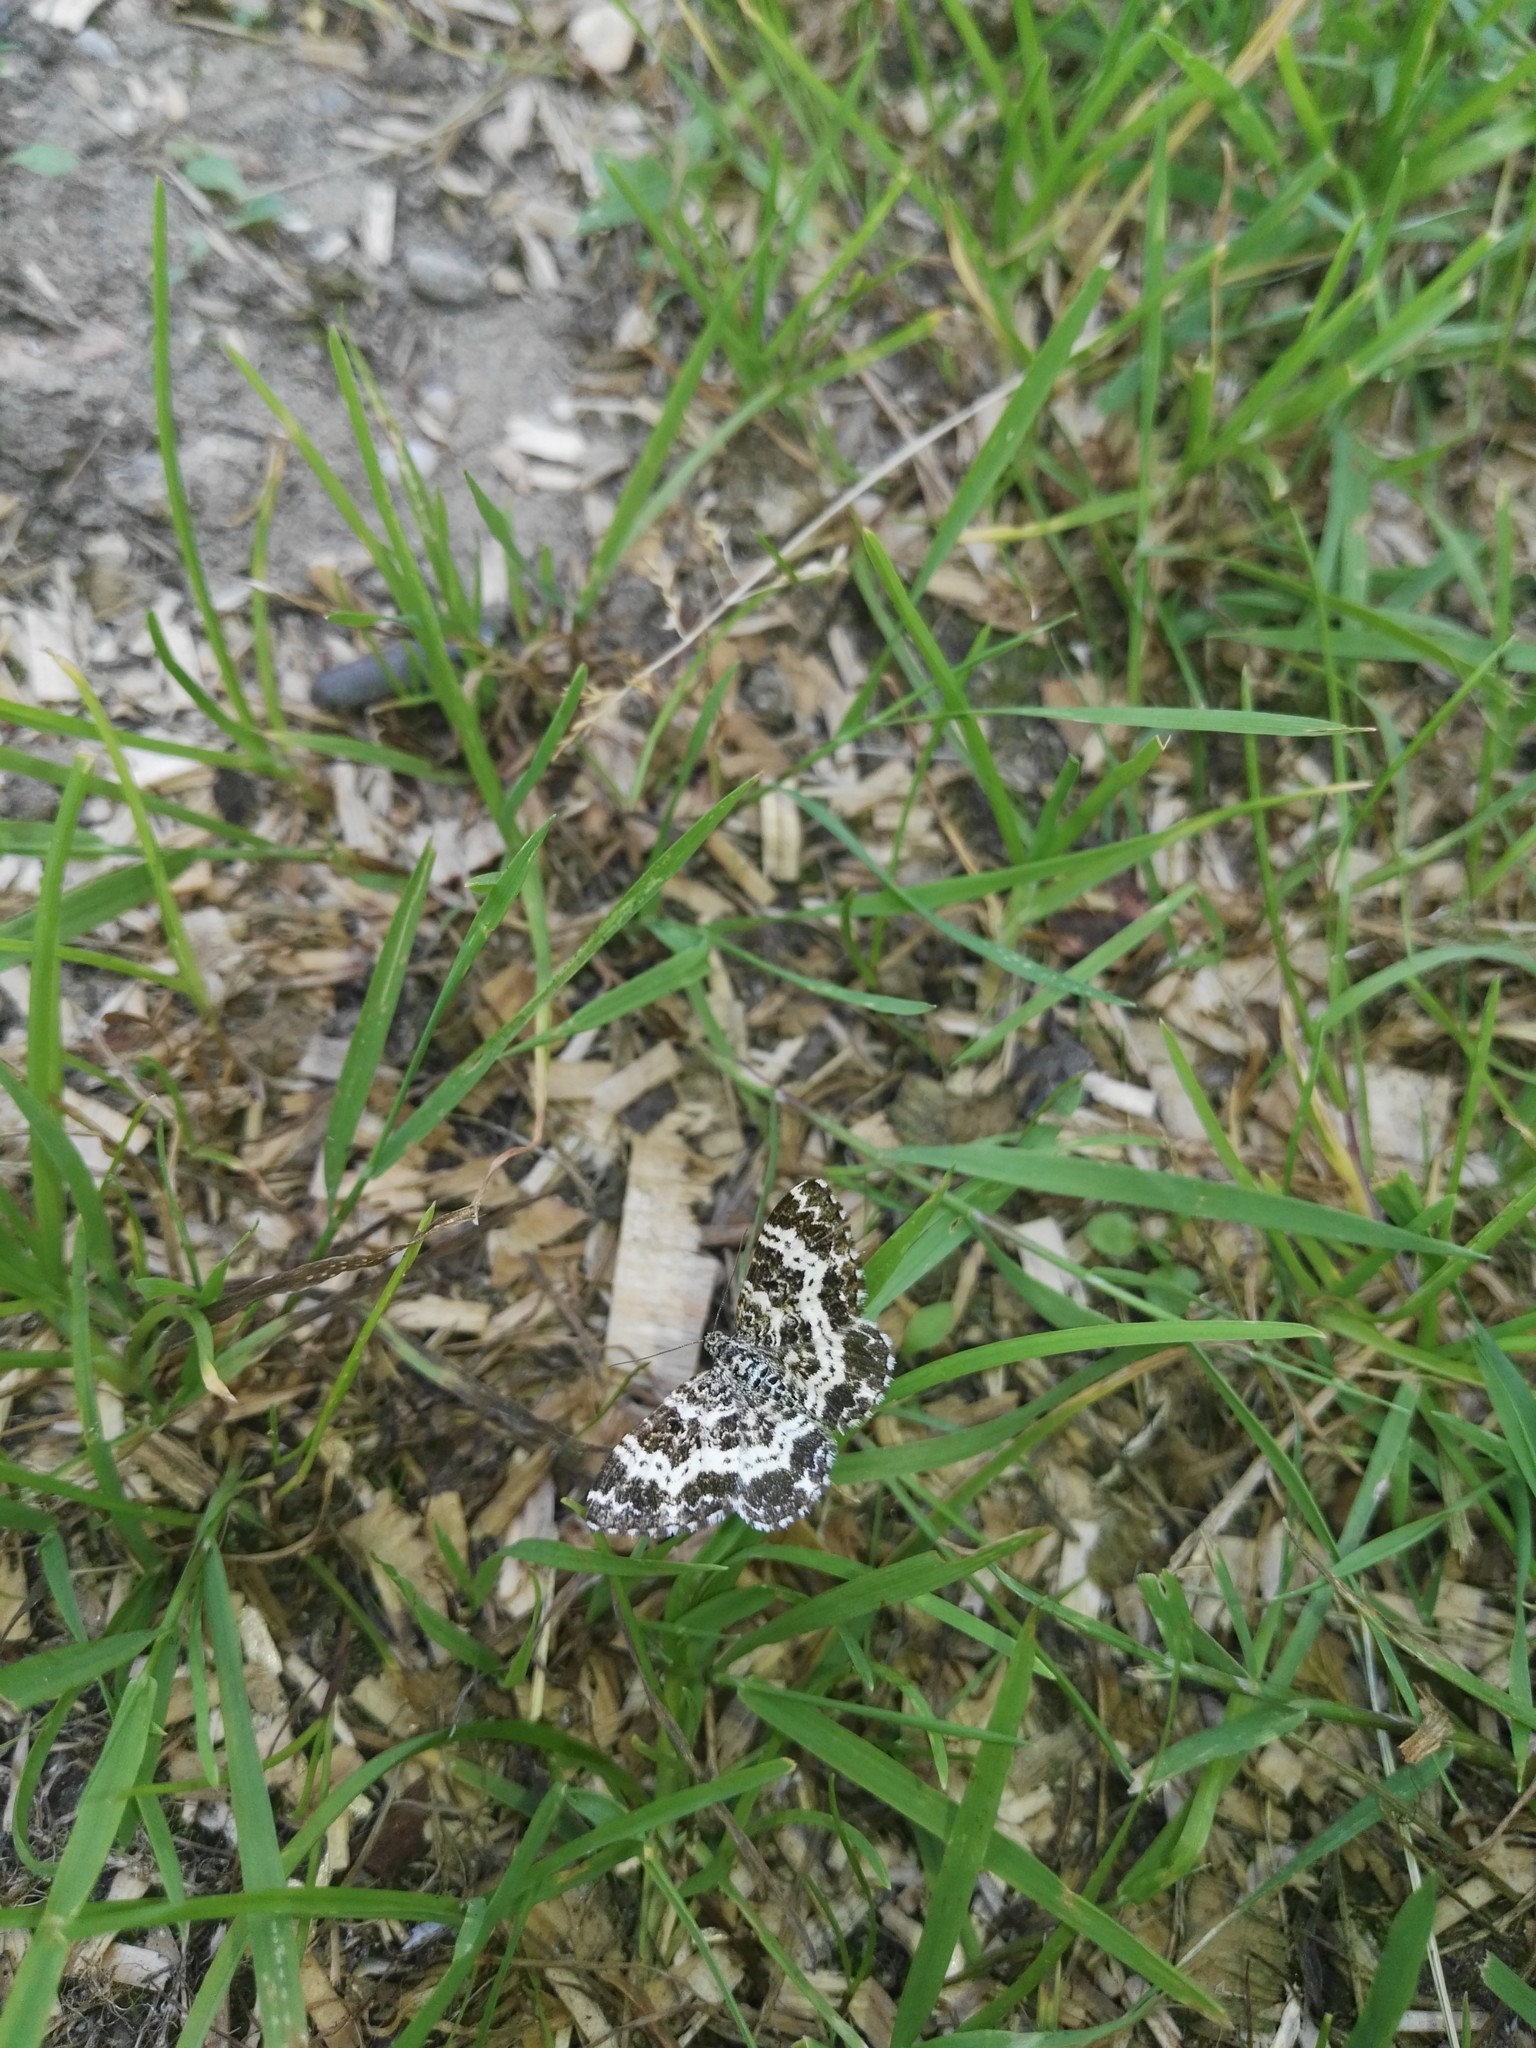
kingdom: Animalia
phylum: Arthropoda
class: Insecta
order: Lepidoptera
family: Geometridae
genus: Epirrhoe
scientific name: Epirrhoe tristata
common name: Small argent & sable
